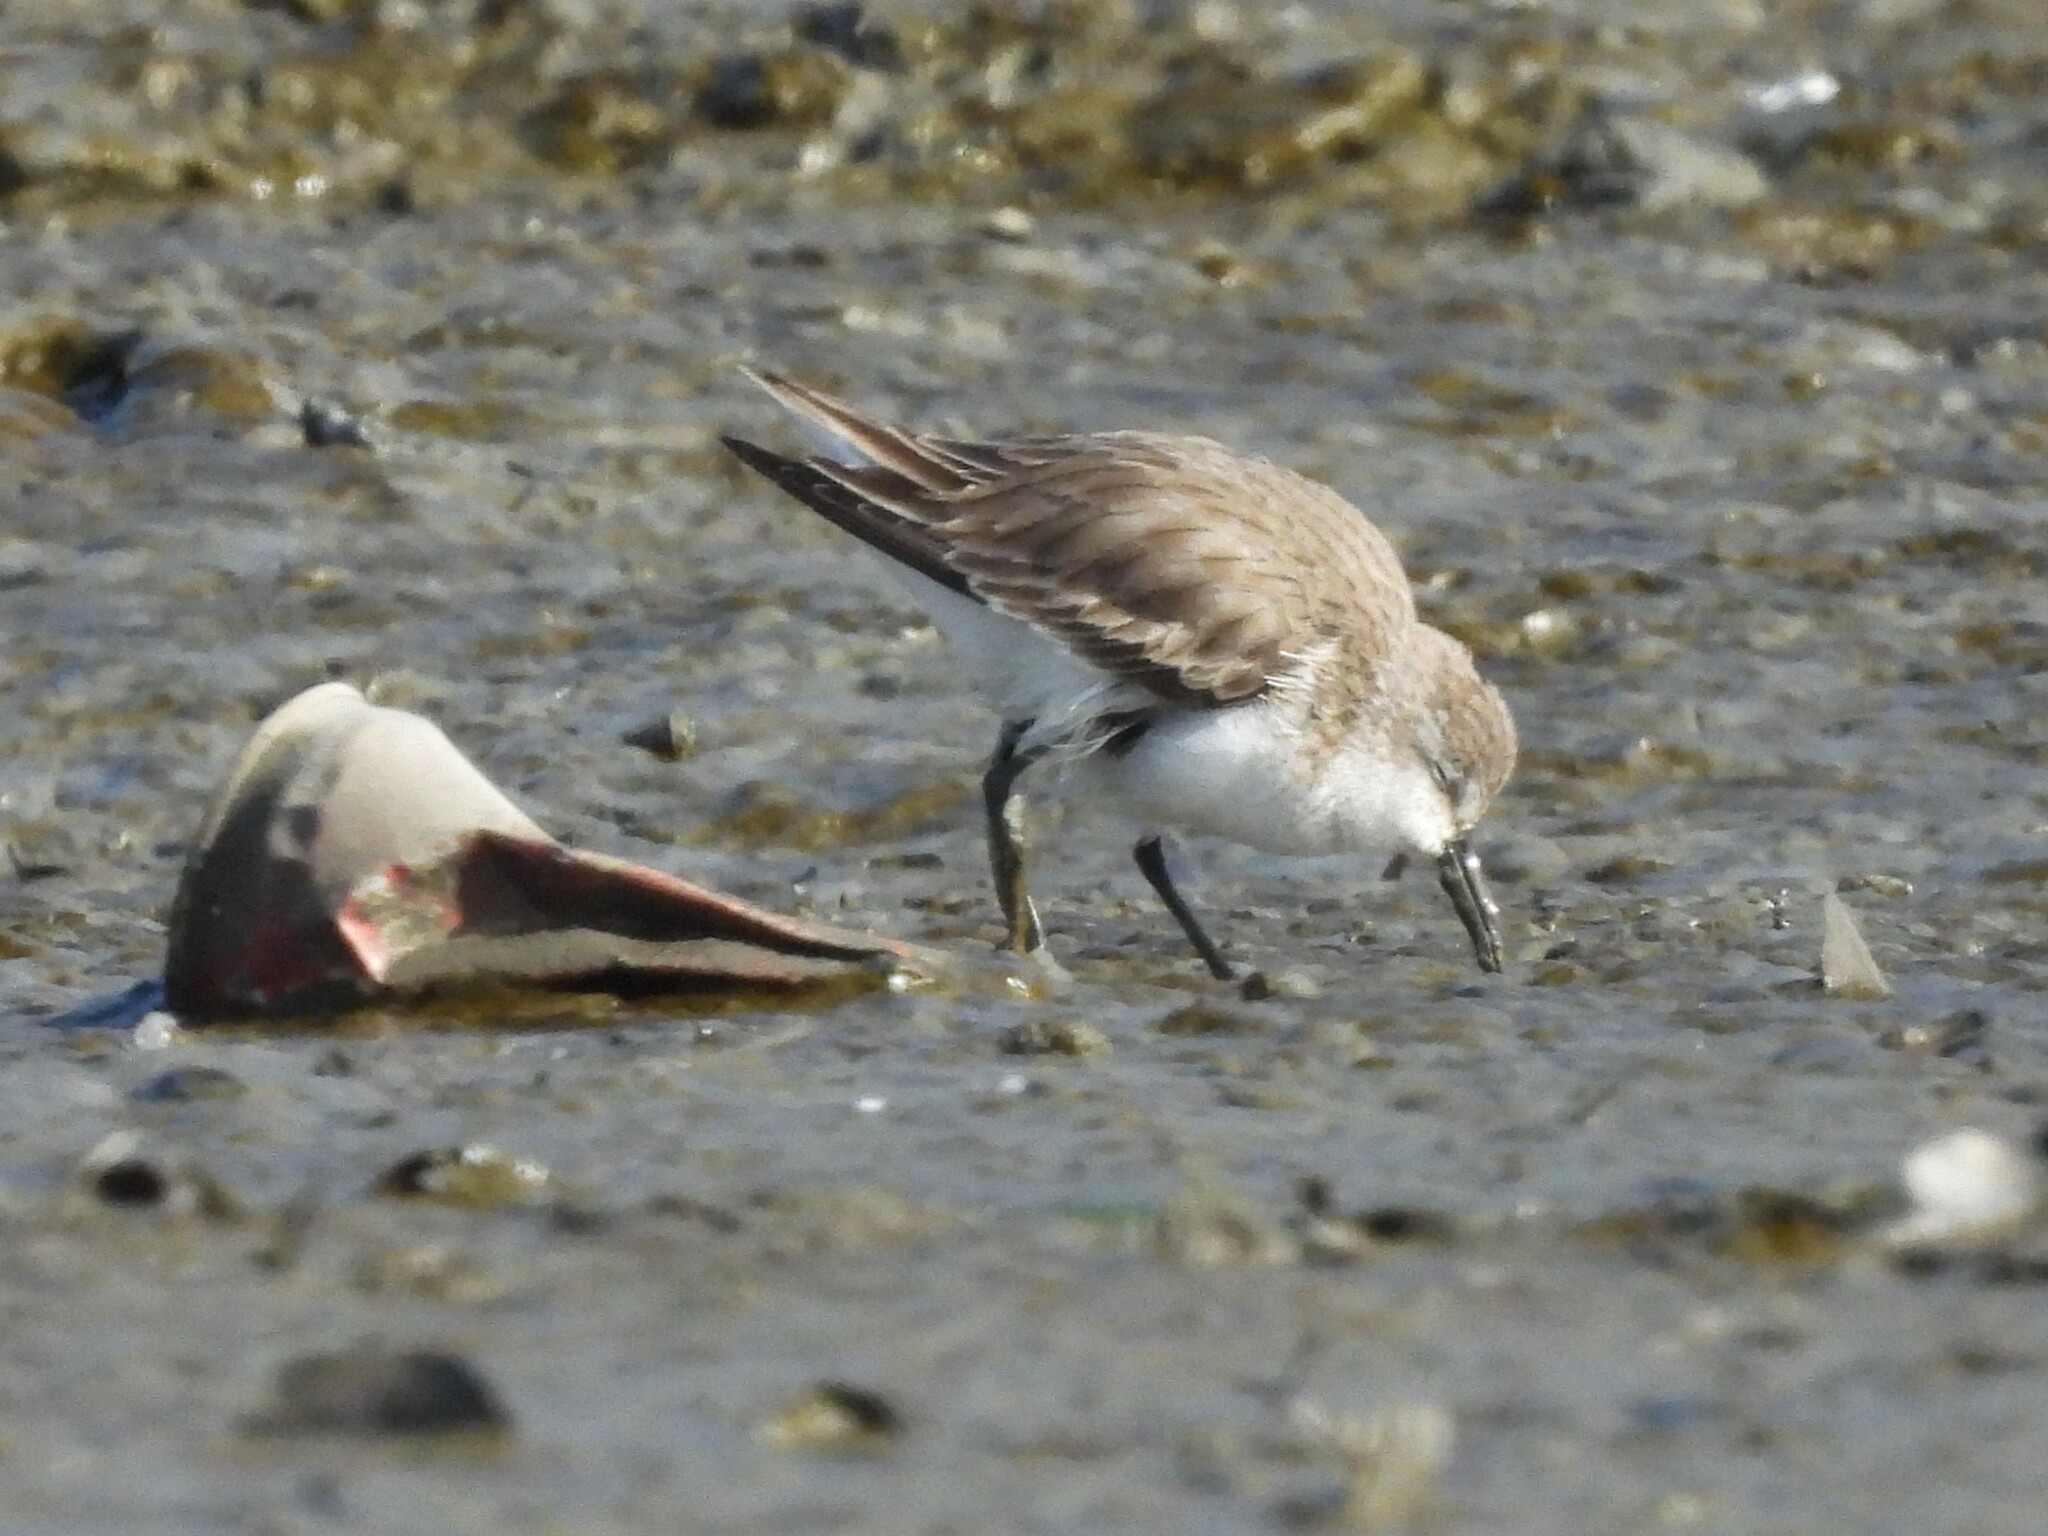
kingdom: Animalia
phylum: Chordata
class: Aves
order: Charadriiformes
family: Scolopacidae
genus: Calidris
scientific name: Calidris mauri
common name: Western sandpiper
